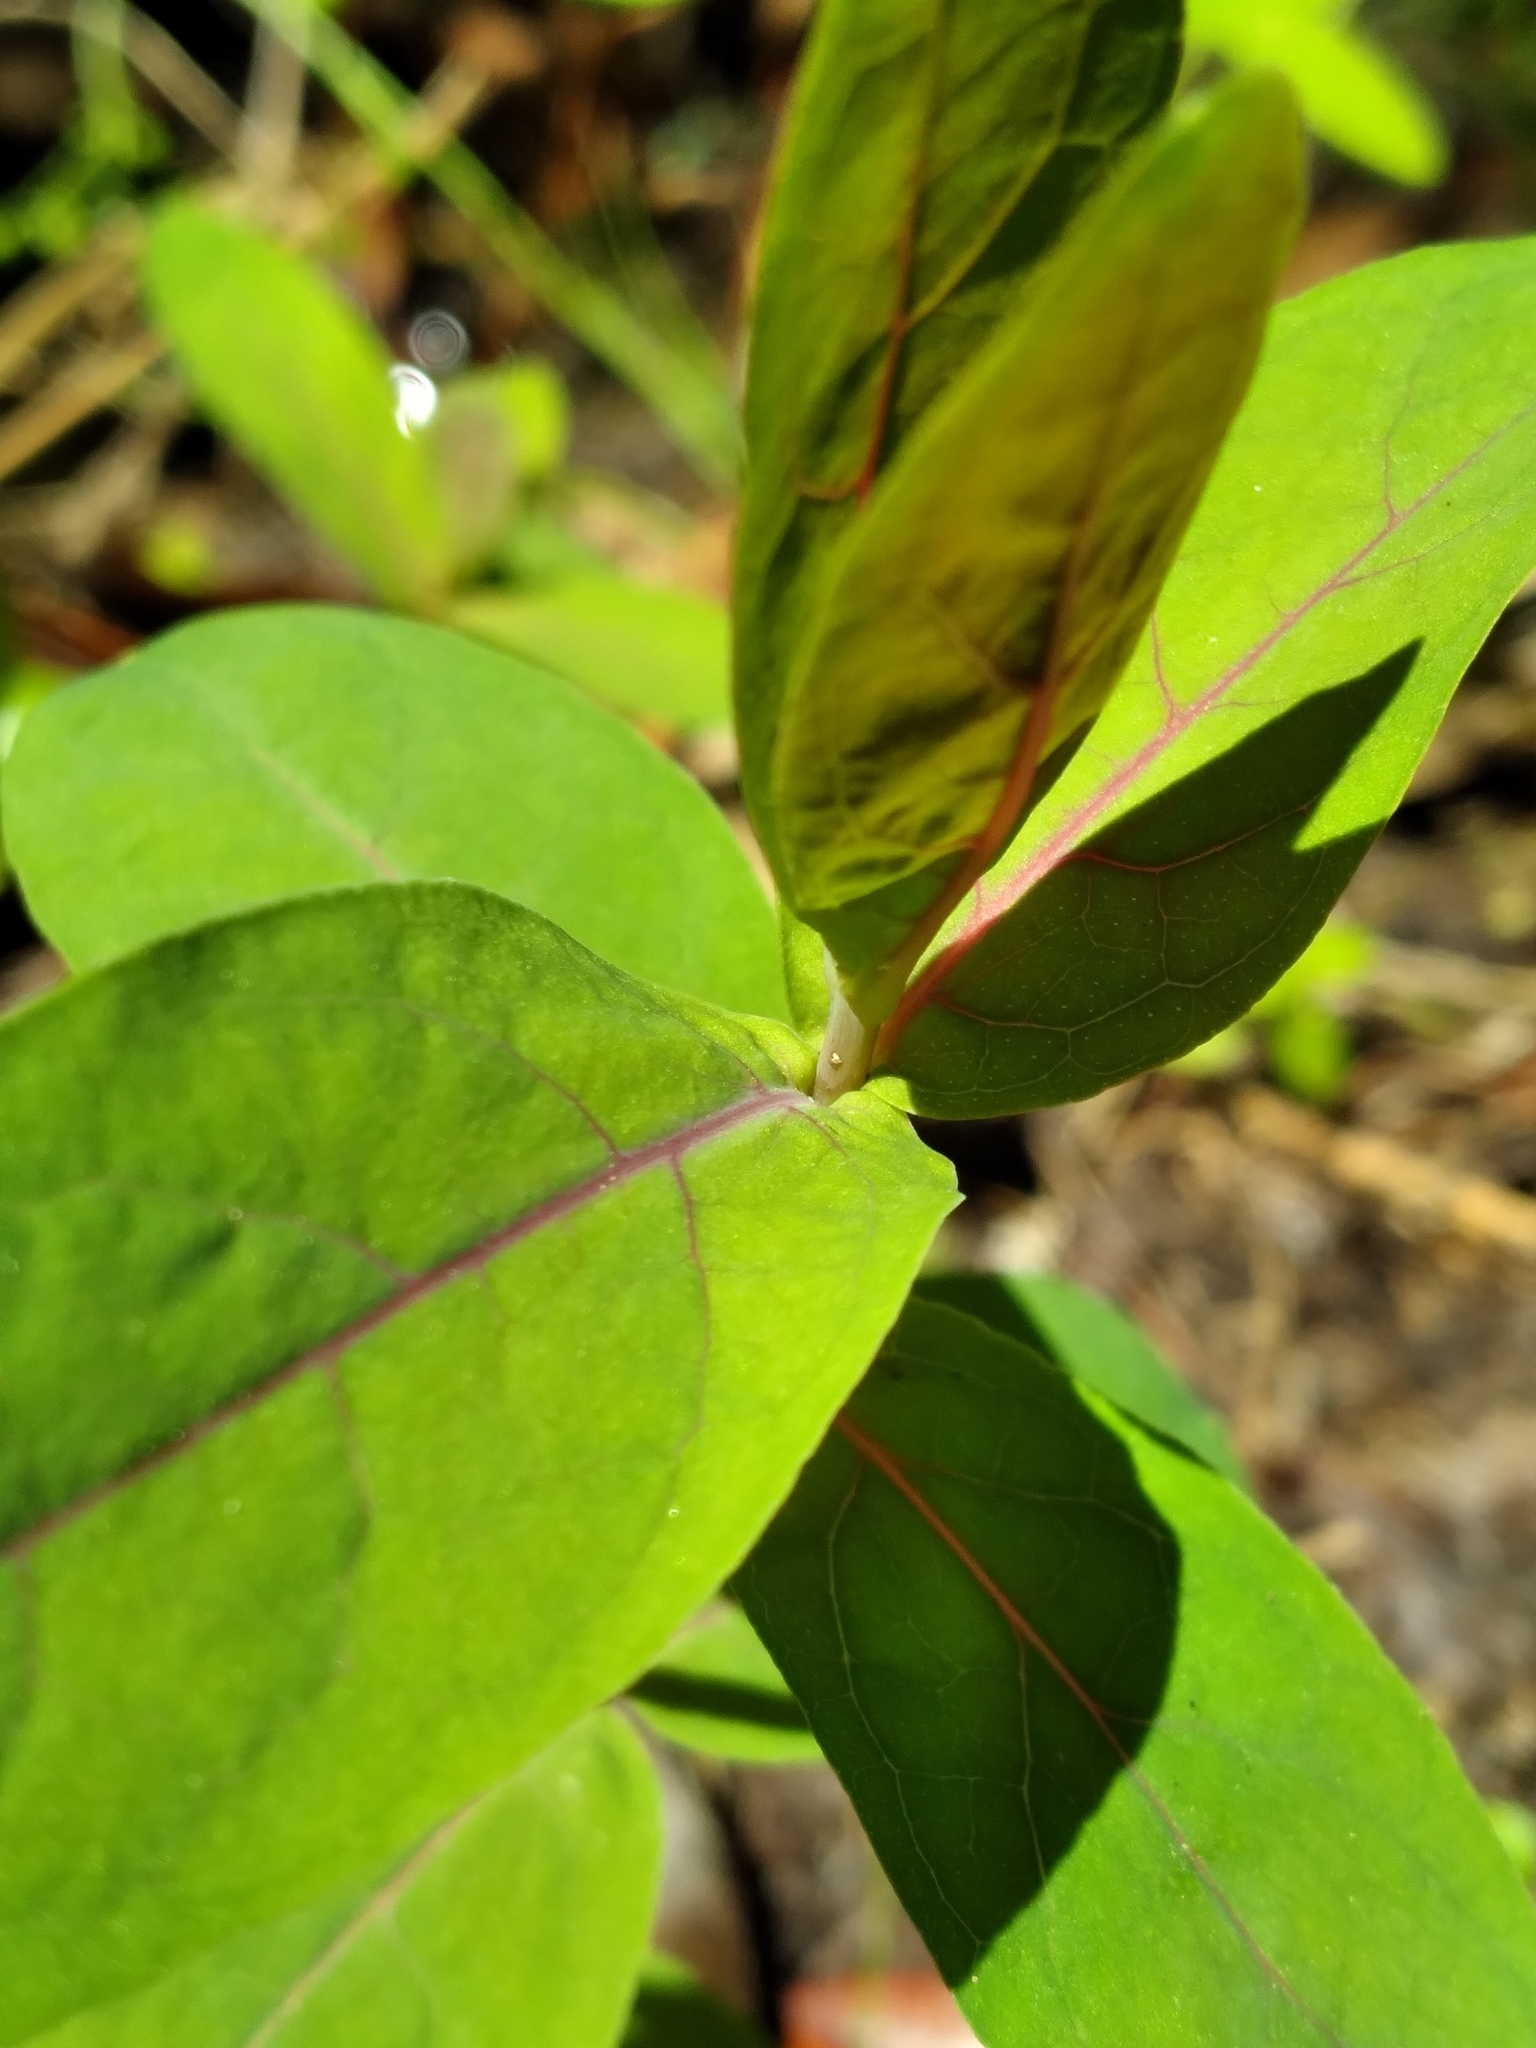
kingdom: Plantae
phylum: Tracheophyta
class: Magnoliopsida
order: Malpighiales
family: Hypericaceae
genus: Triadenum
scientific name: Triadenum virginicum
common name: Marsh st. john's-wort
